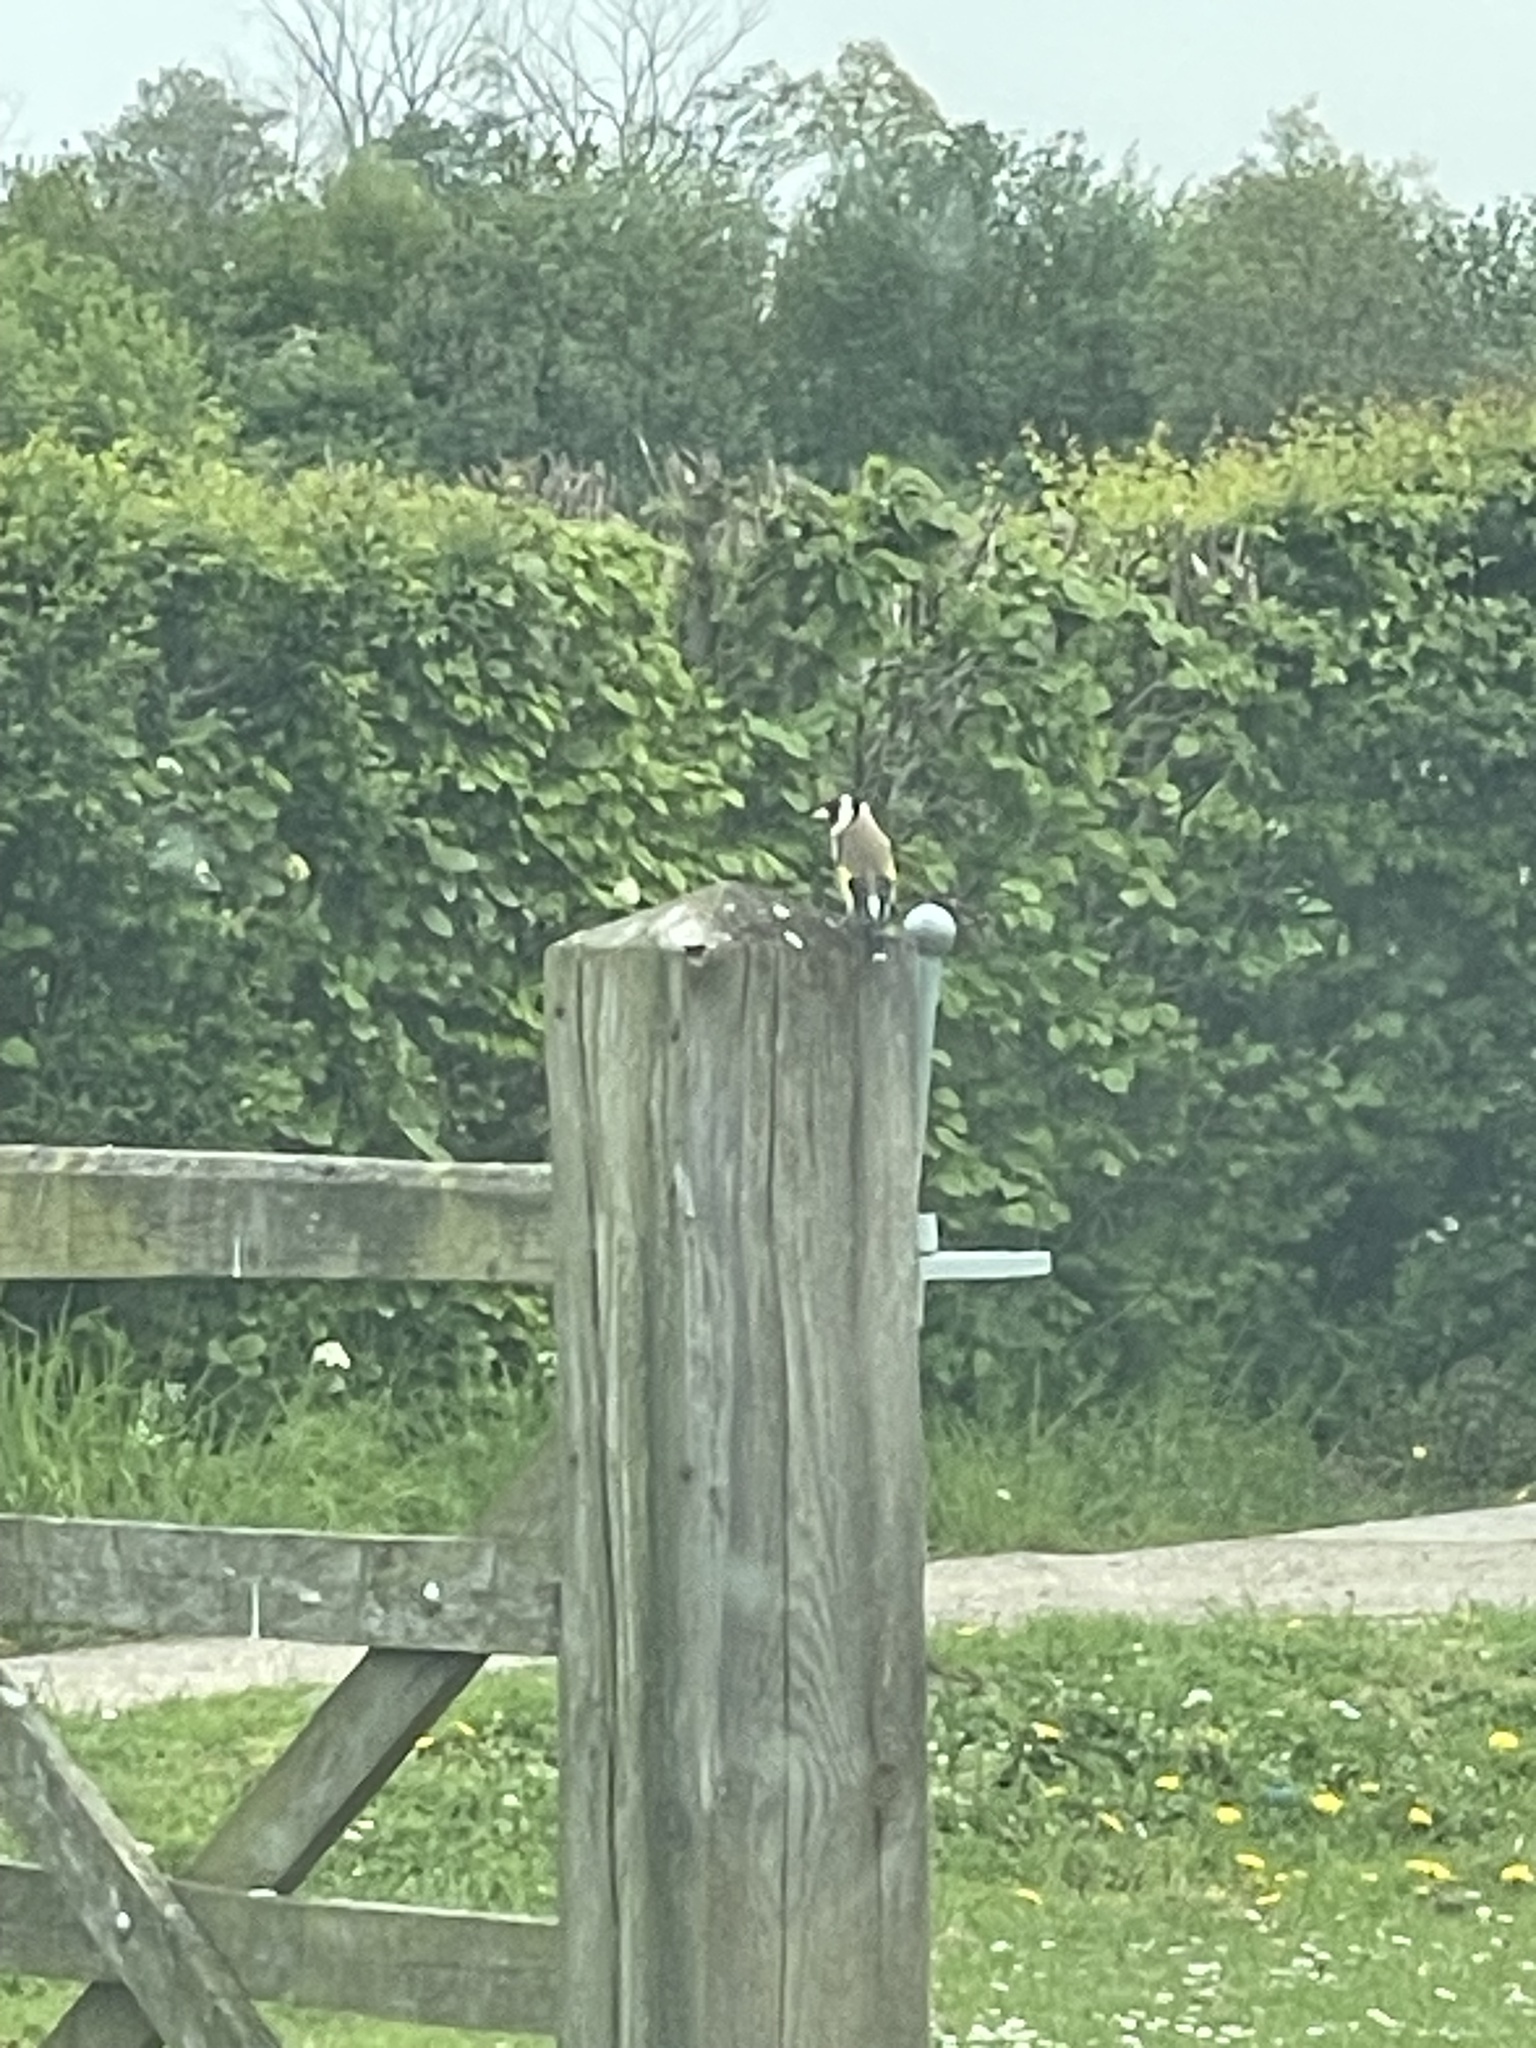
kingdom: Animalia
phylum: Chordata
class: Aves
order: Passeriformes
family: Fringillidae
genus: Carduelis
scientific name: Carduelis carduelis
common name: European goldfinch
